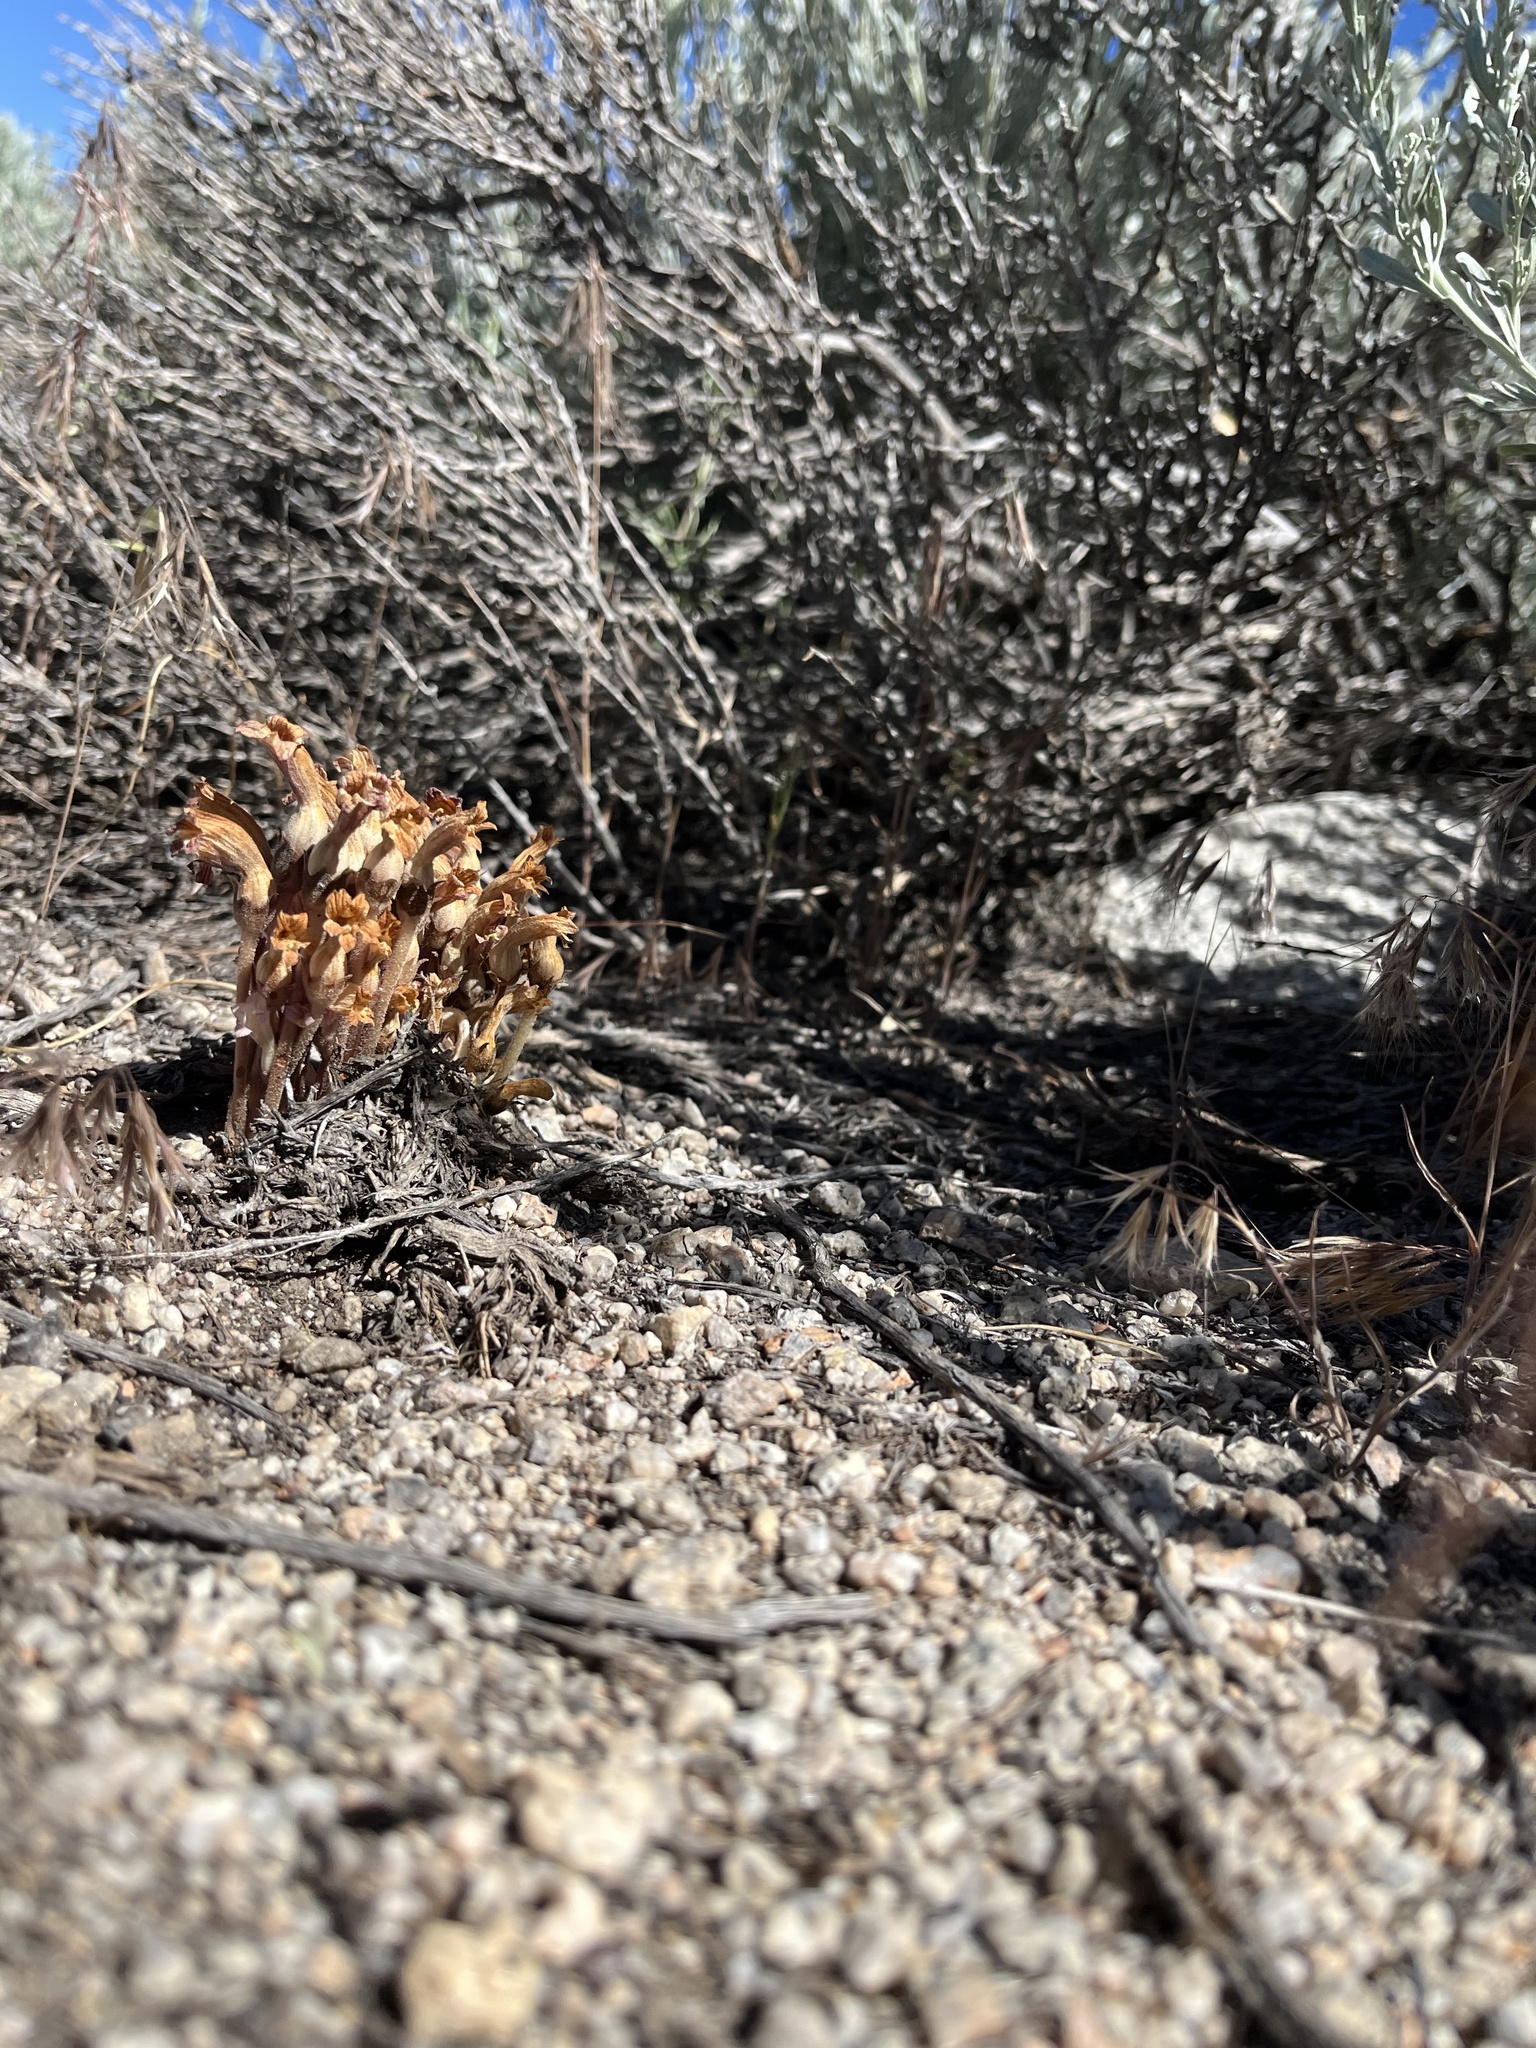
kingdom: Plantae
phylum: Tracheophyta
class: Magnoliopsida
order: Lamiales
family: Orobanchaceae
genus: Aphyllon
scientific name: Aphyllon fasciculatum
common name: Clustered broomrape
